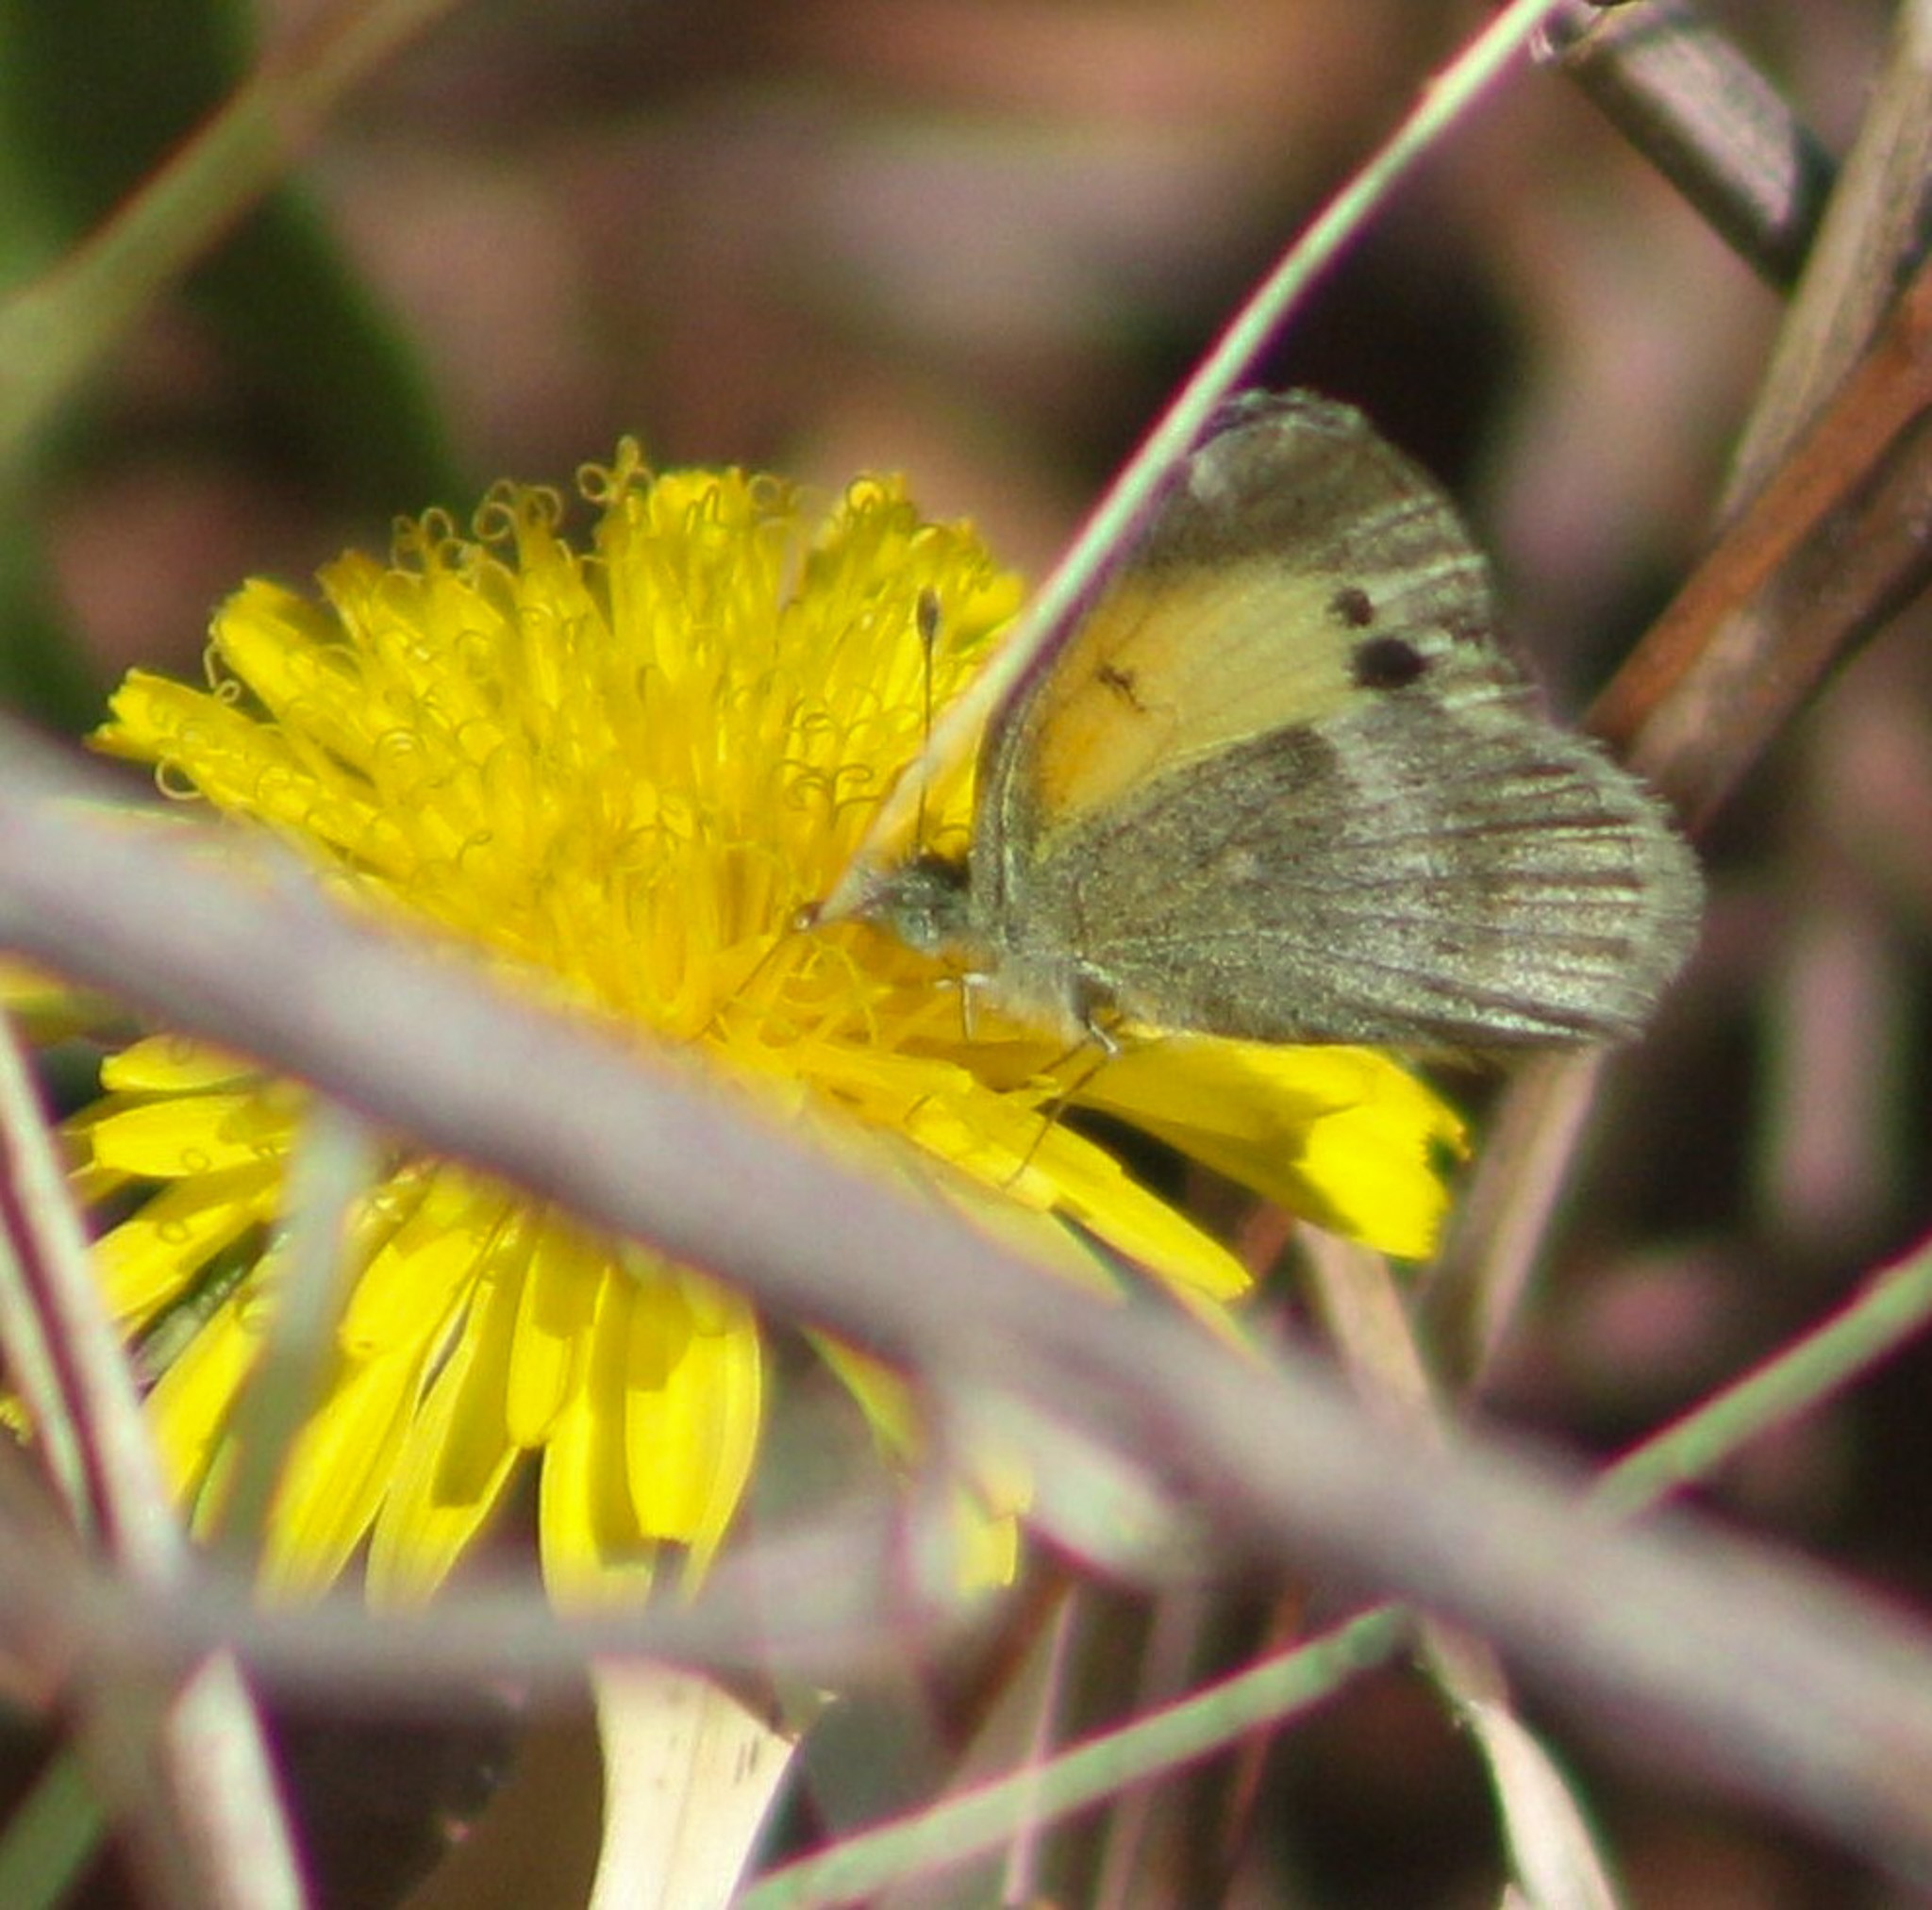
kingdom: Animalia
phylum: Arthropoda
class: Insecta
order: Lepidoptera
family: Pieridae
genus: Nathalis
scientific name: Nathalis iole
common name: Dainty sulphur
